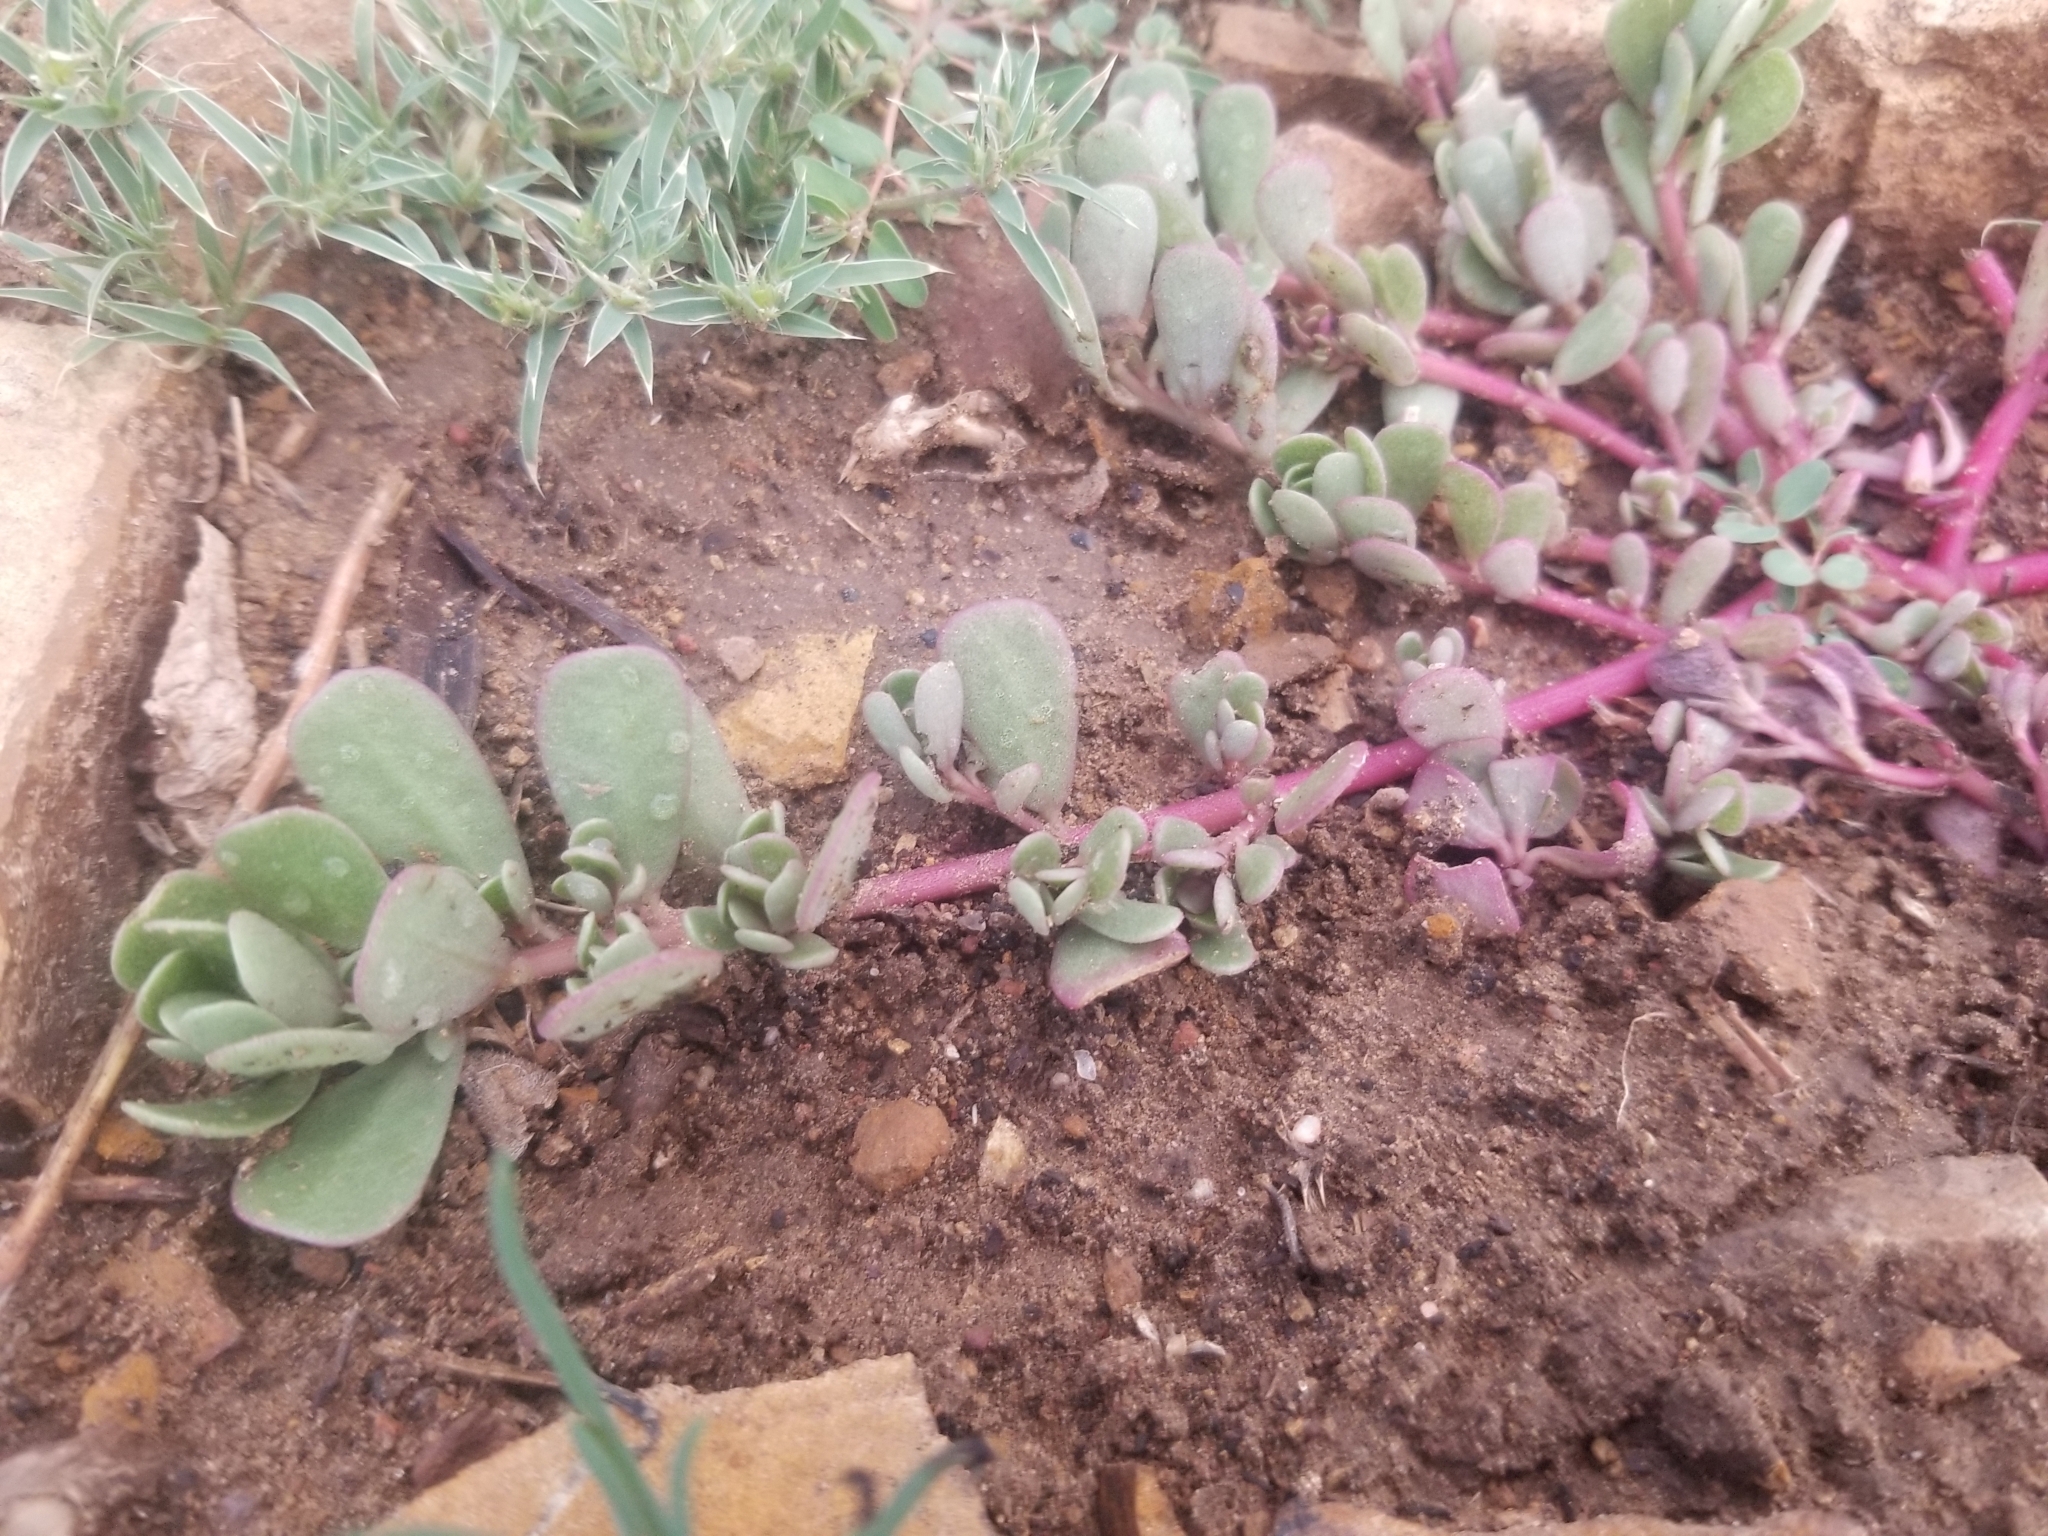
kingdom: Plantae
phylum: Tracheophyta
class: Magnoliopsida
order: Caryophyllales
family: Portulacaceae
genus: Portulaca
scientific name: Portulaca oleracea
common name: Common purslane
